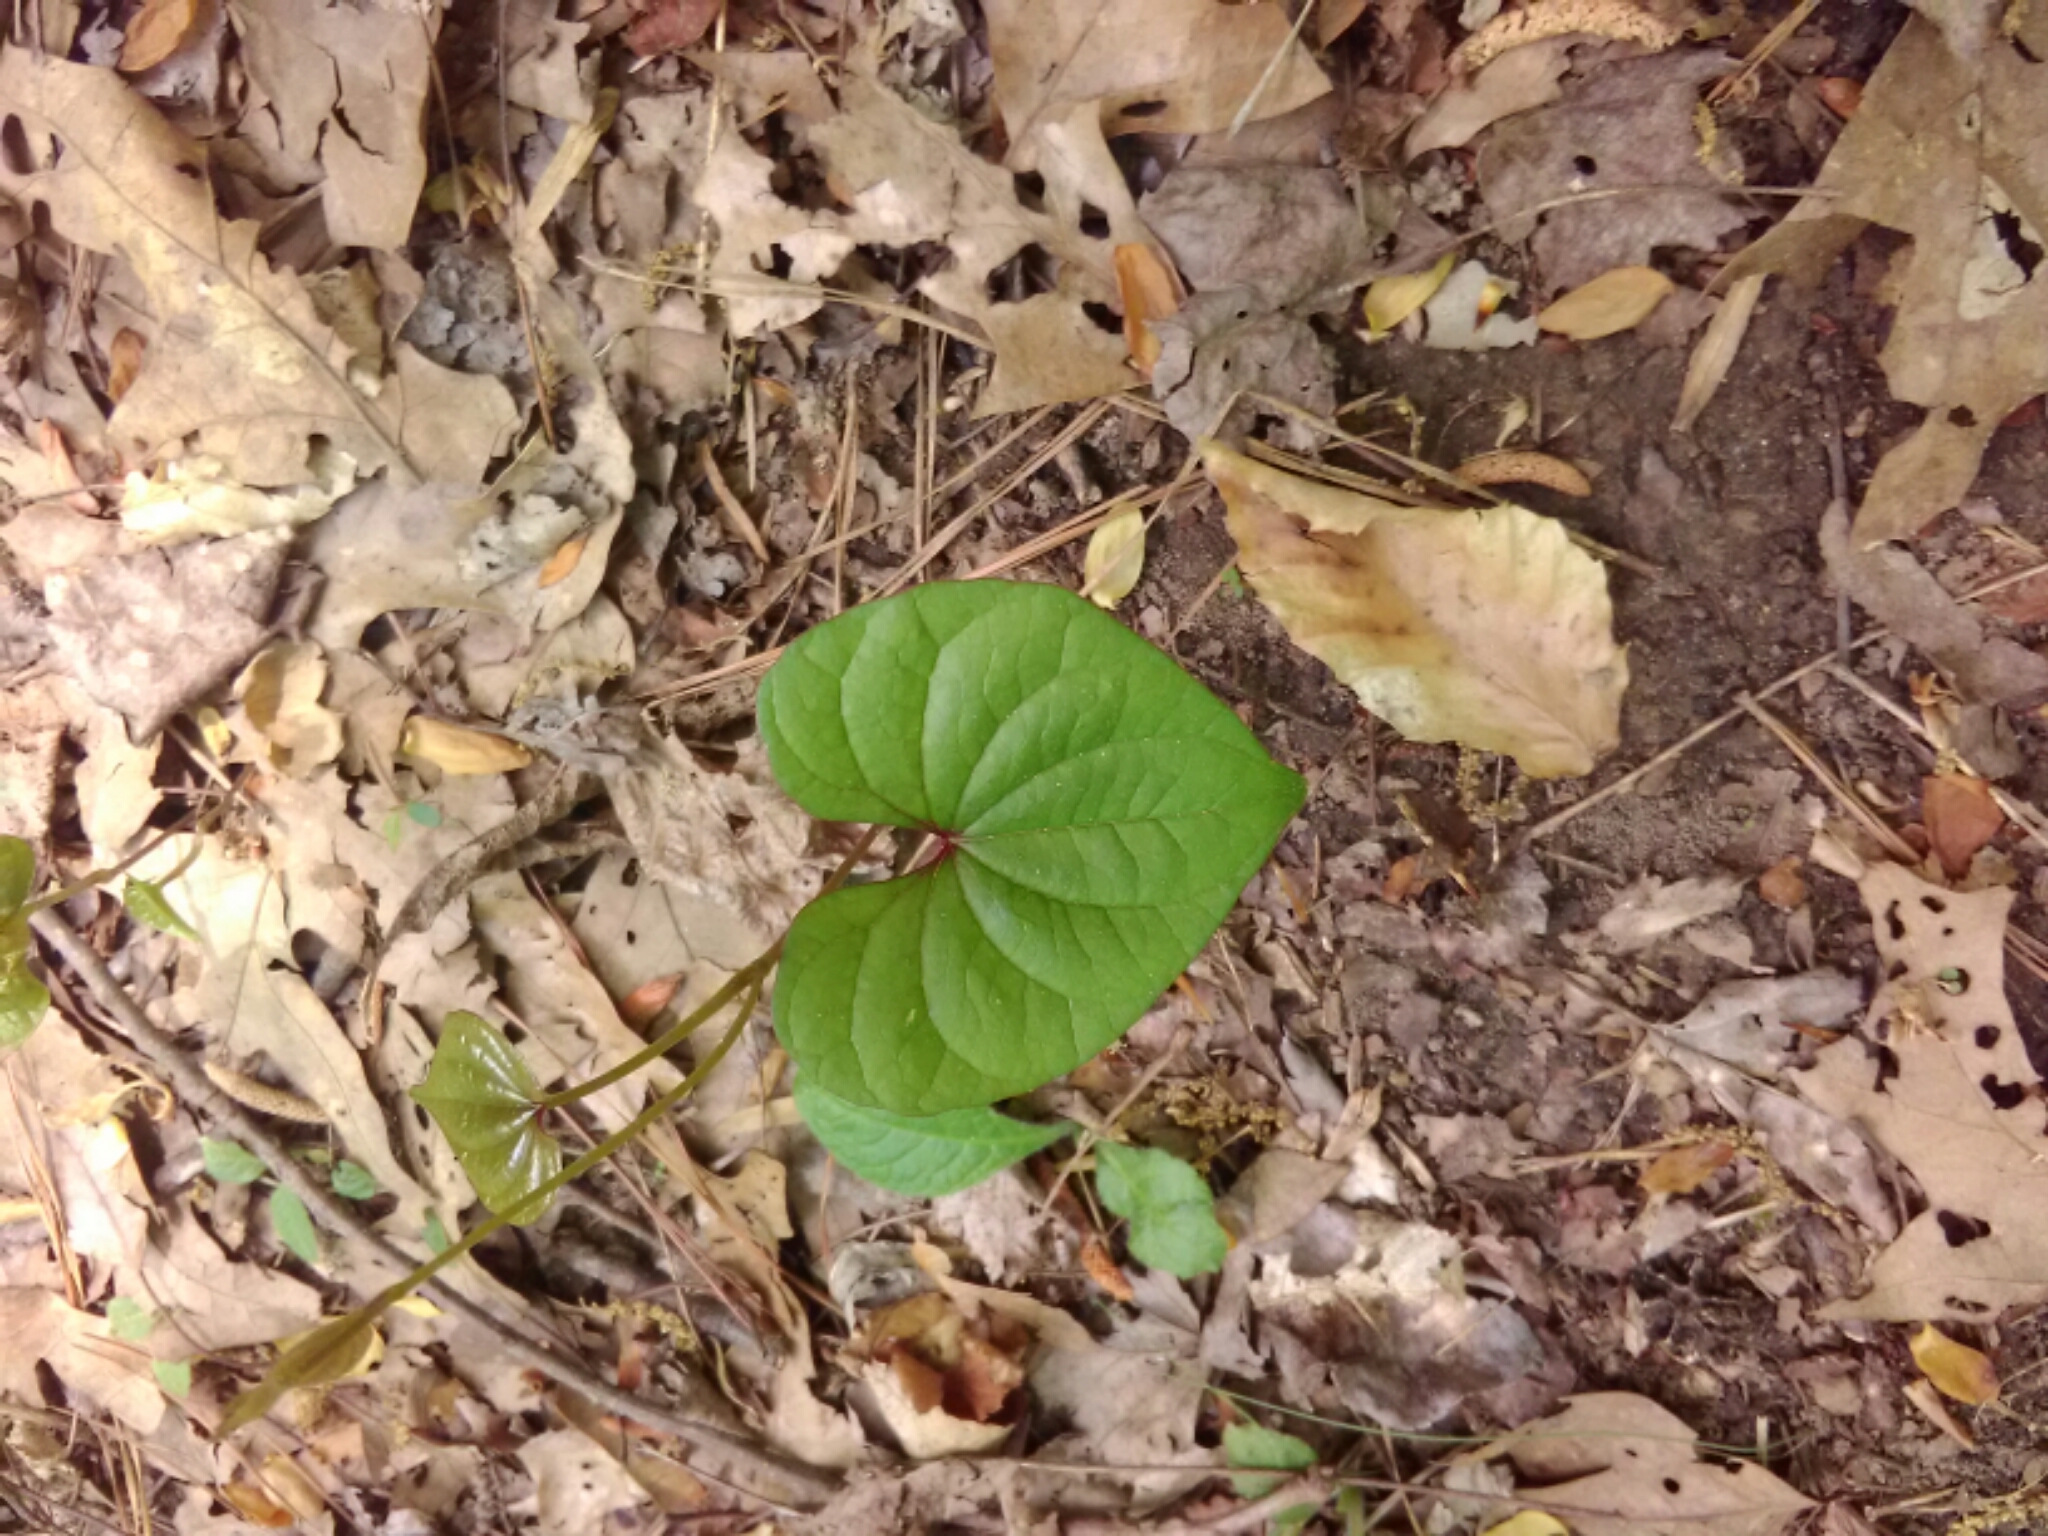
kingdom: Plantae
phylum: Tracheophyta
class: Liliopsida
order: Dioscoreales
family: Dioscoreaceae
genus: Dioscorea
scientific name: Dioscorea polystachya
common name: Chinese yam
